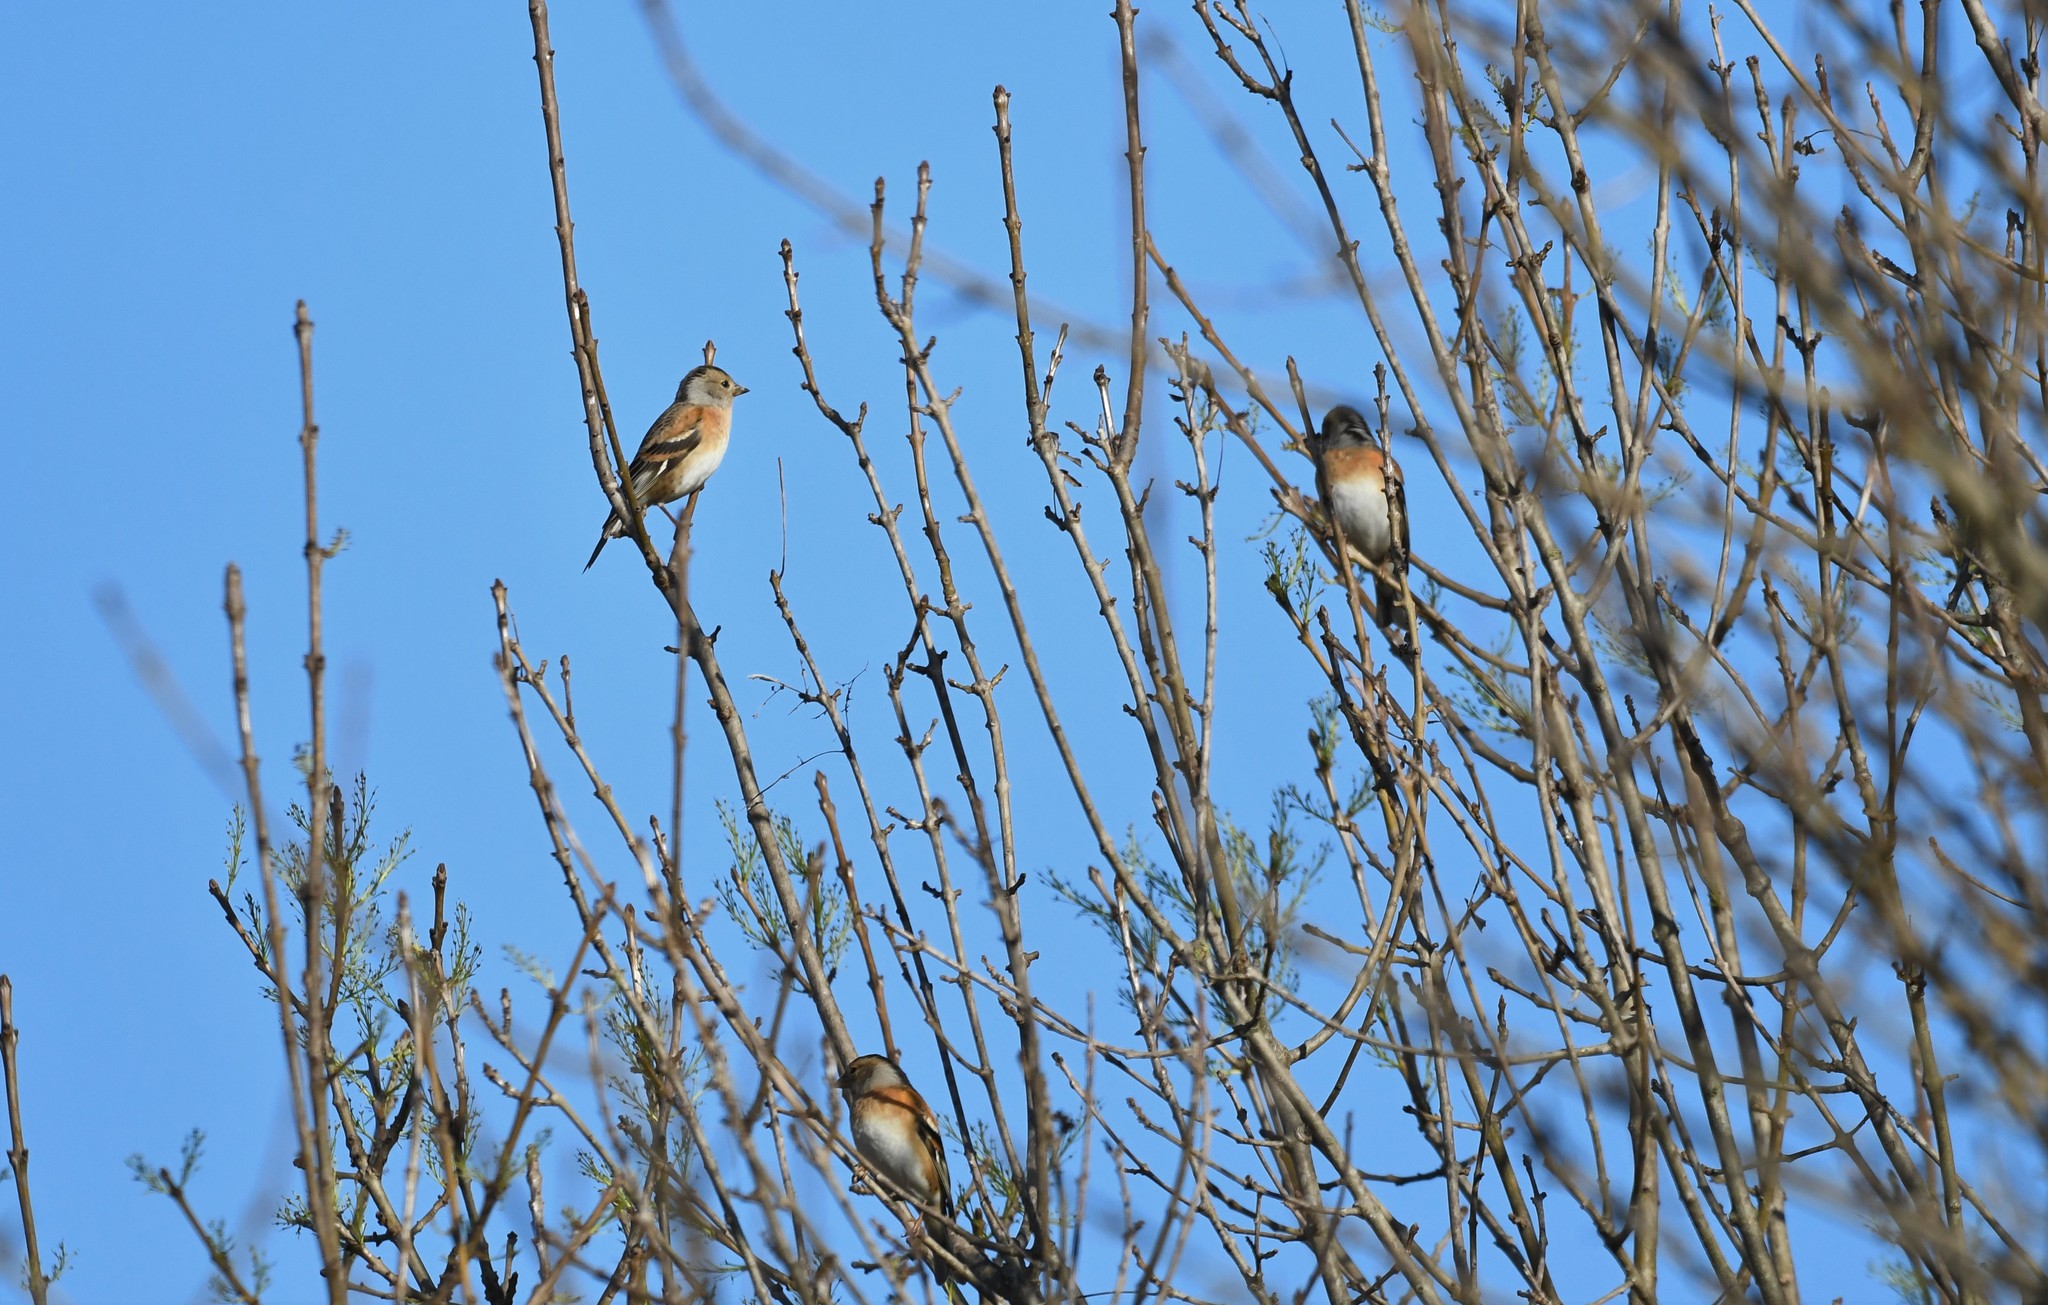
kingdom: Animalia
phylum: Chordata
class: Aves
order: Passeriformes
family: Fringillidae
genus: Fringilla
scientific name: Fringilla montifringilla
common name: Brambling
